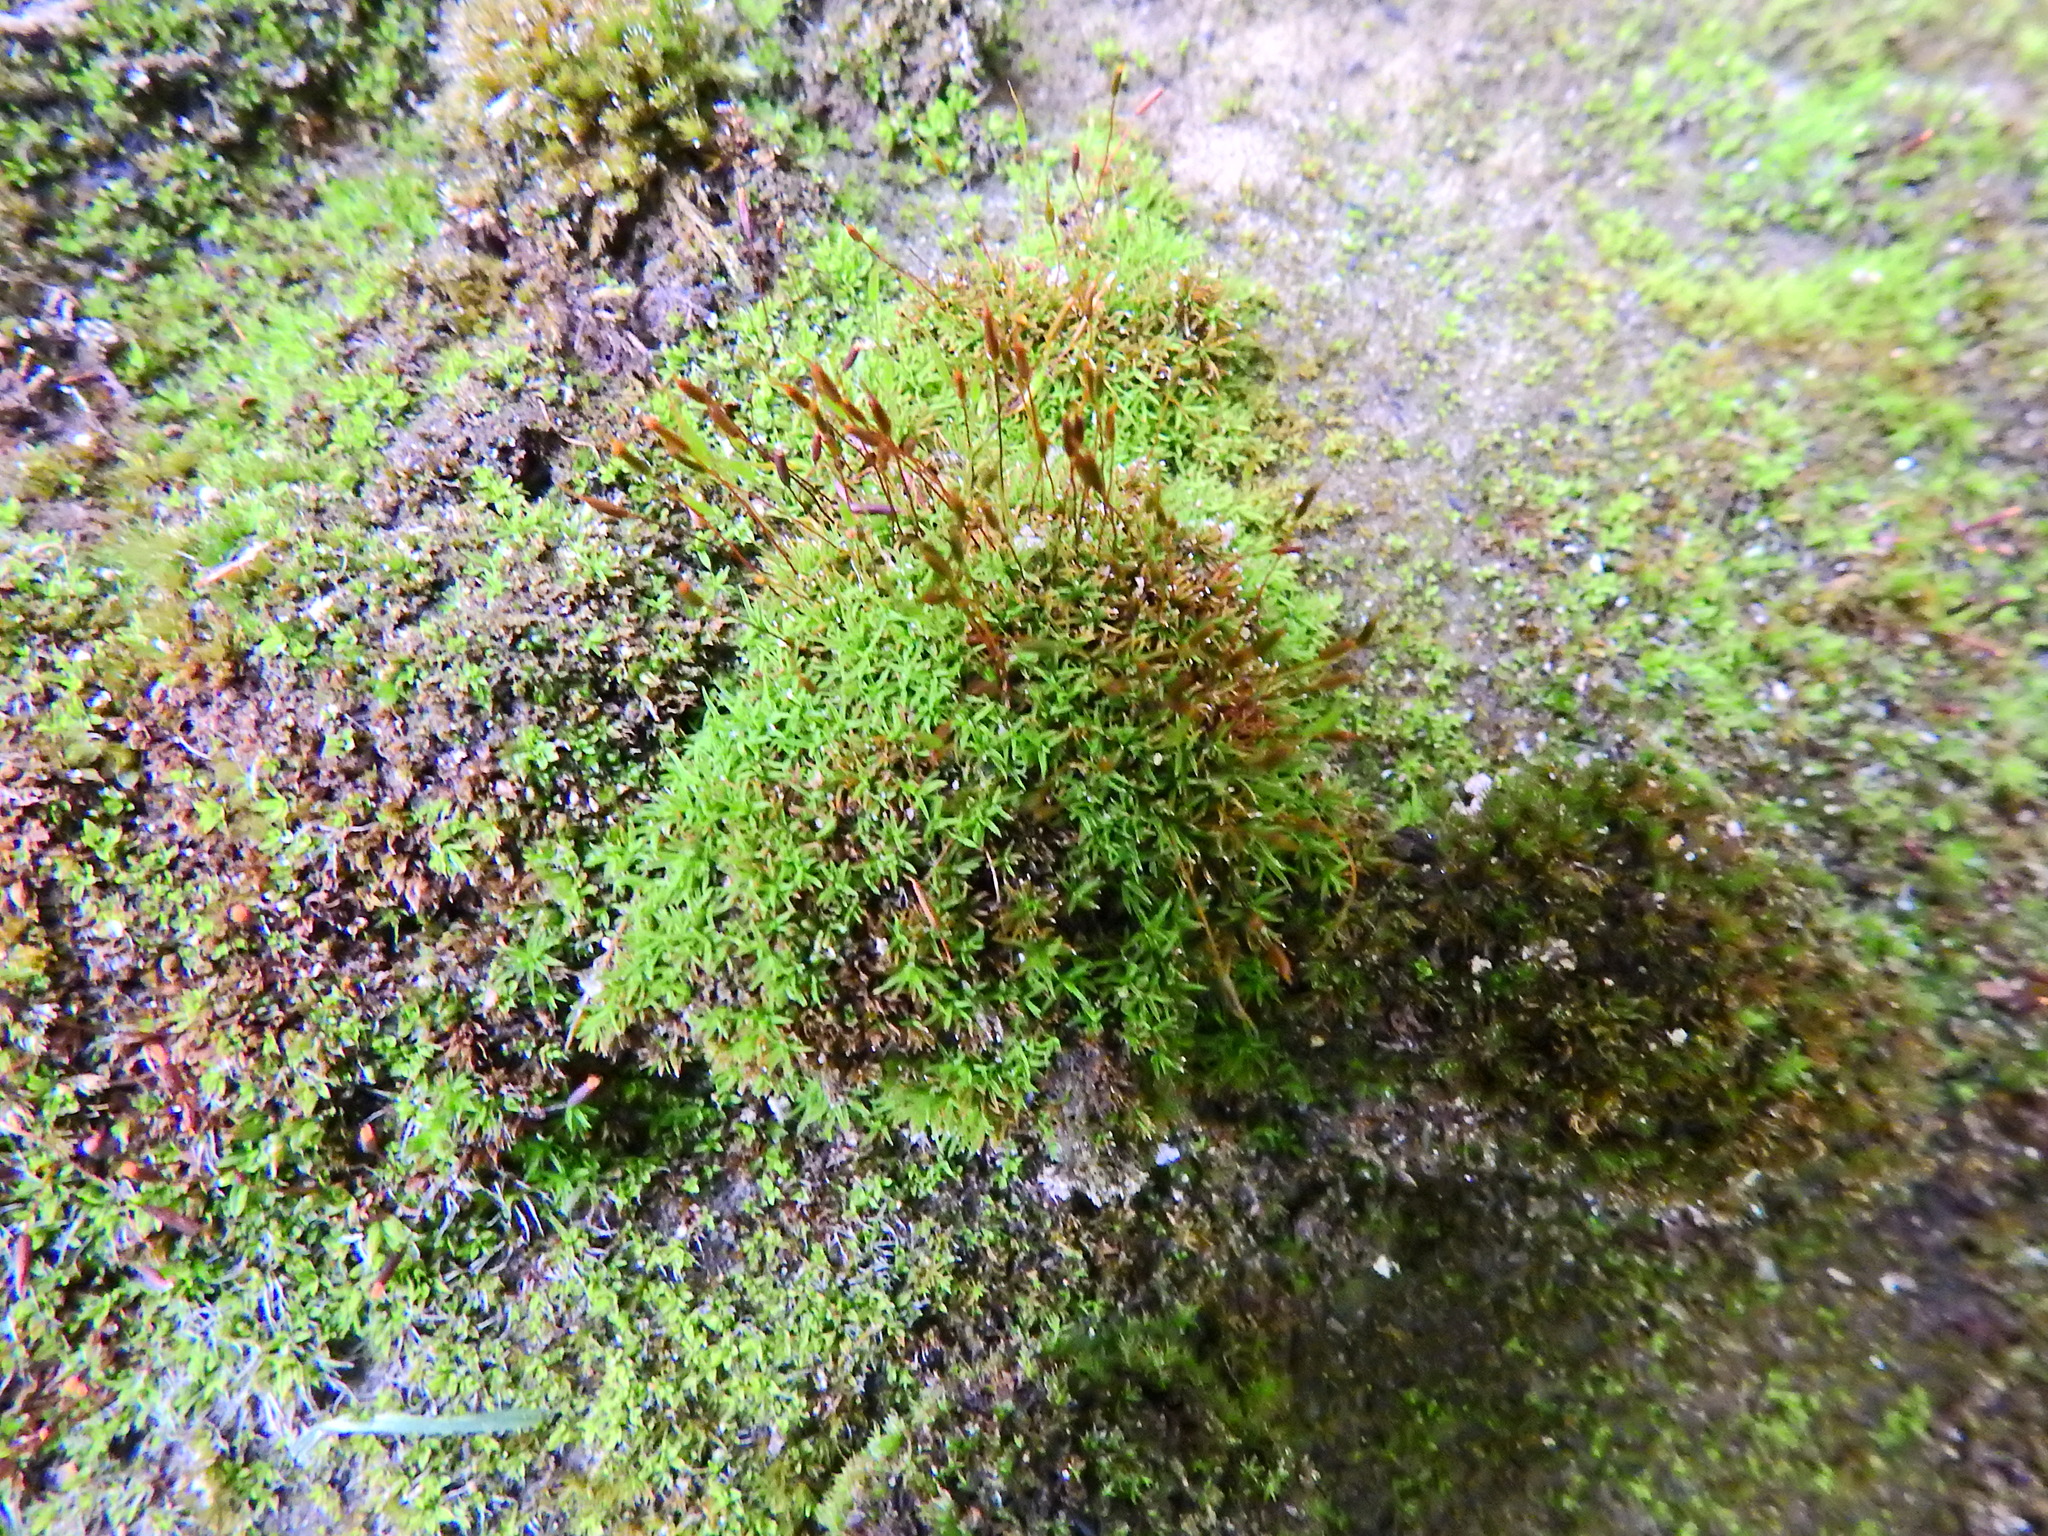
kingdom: Plantae
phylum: Bryophyta
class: Bryopsida
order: Pottiales
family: Pottiaceae
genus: Bryoerythrophyllum
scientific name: Bryoerythrophyllum recurvirostrum
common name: Red beard moss
